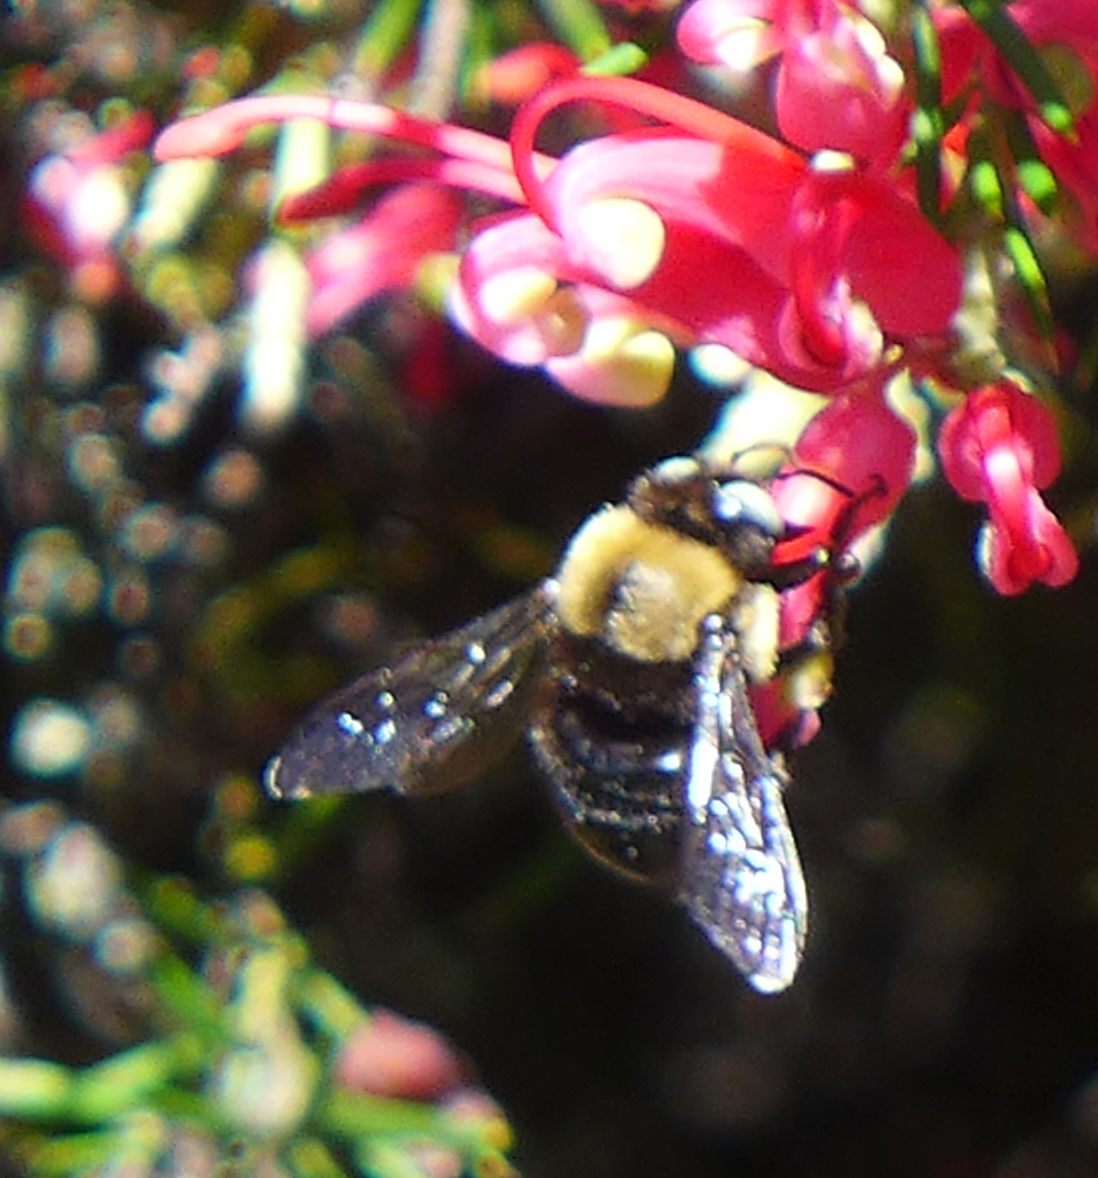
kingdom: Animalia
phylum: Arthropoda
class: Insecta
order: Hymenoptera
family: Apidae
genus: Xylocopa
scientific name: Xylocopa tabaniformis
